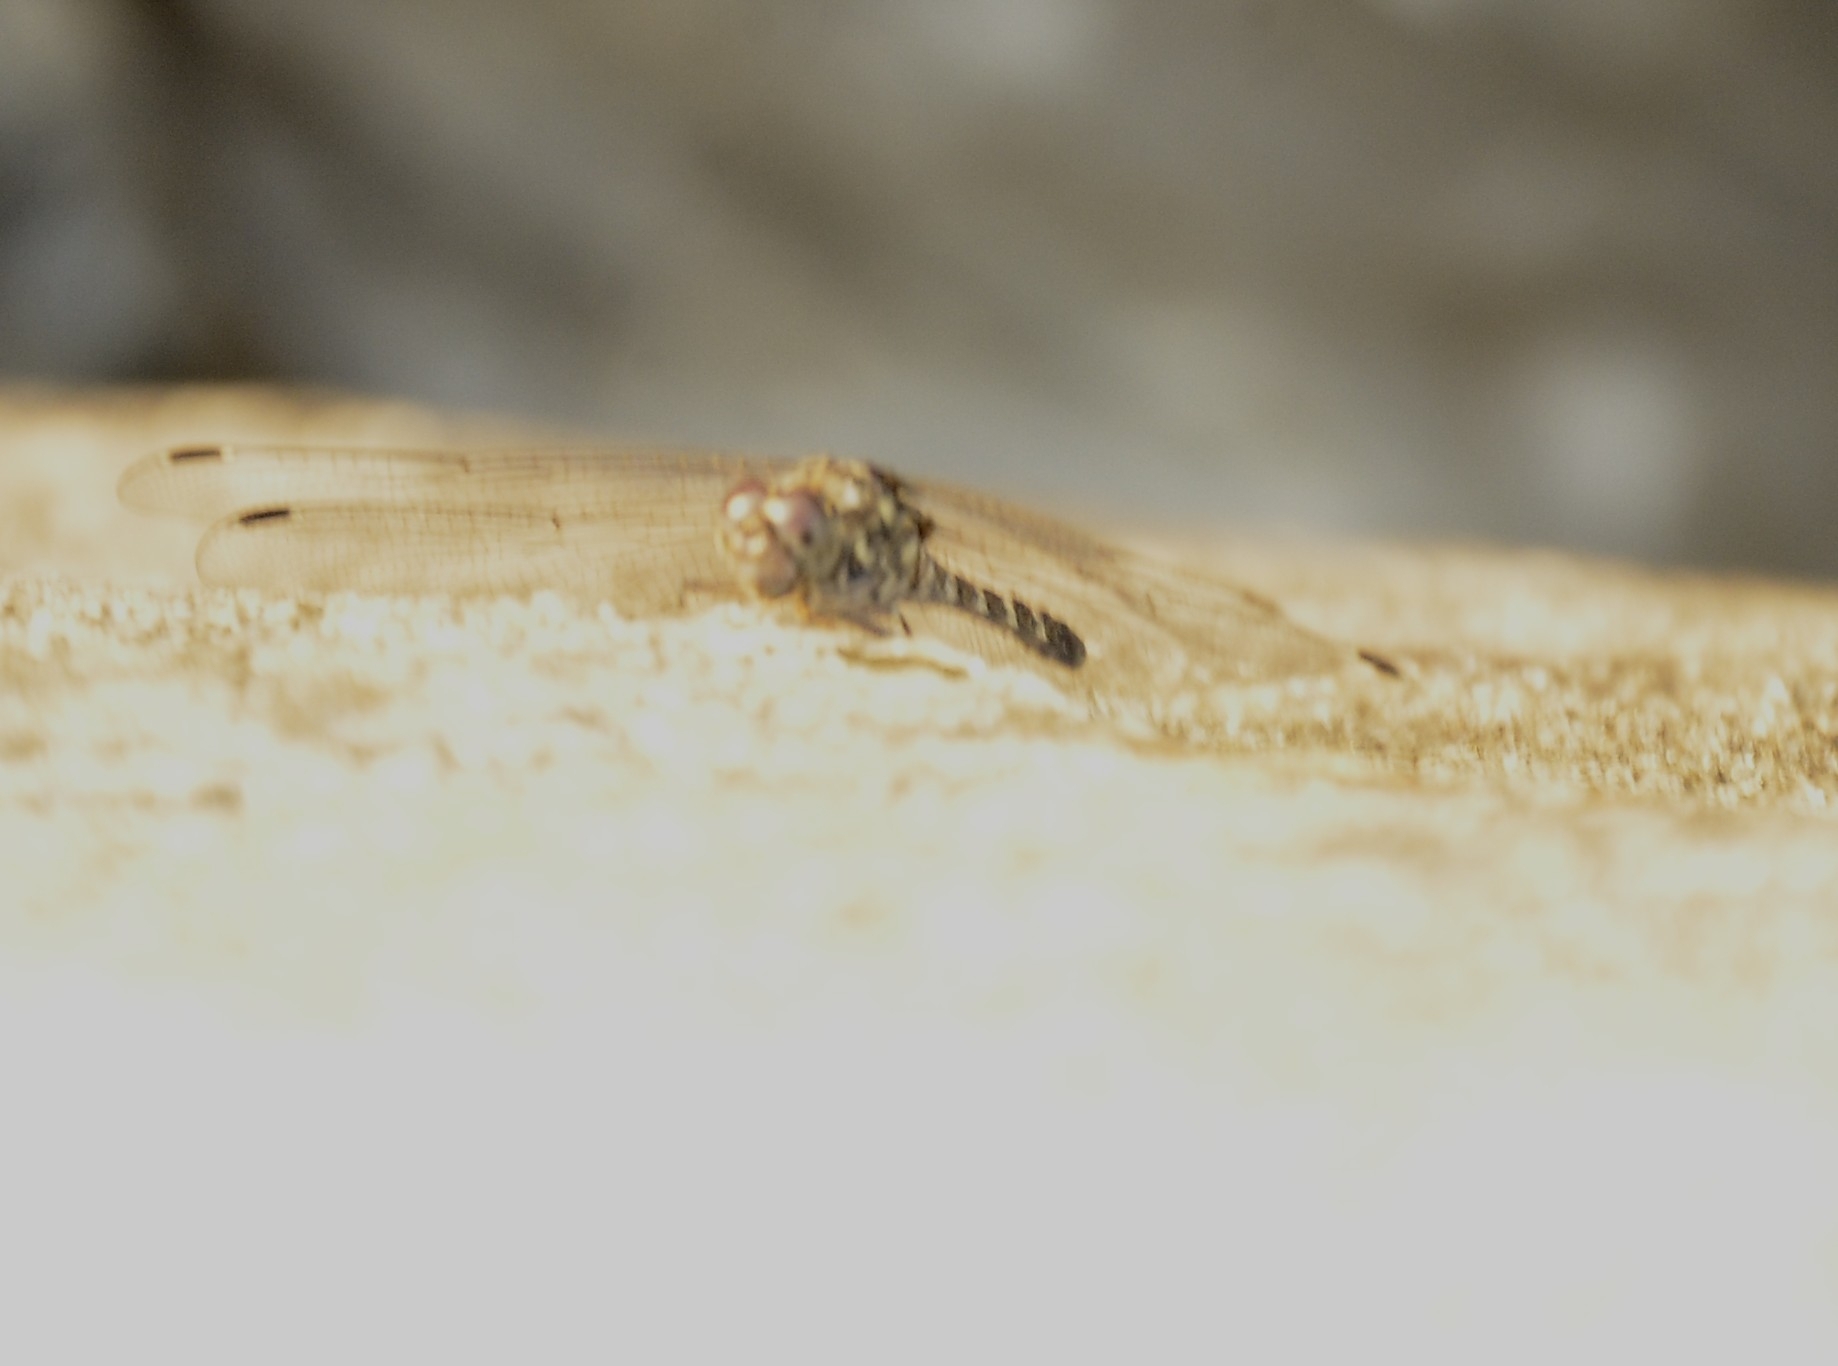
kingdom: Animalia
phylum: Arthropoda
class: Insecta
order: Odonata
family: Libellulidae
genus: Bradinopyga
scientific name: Bradinopyga geminata
